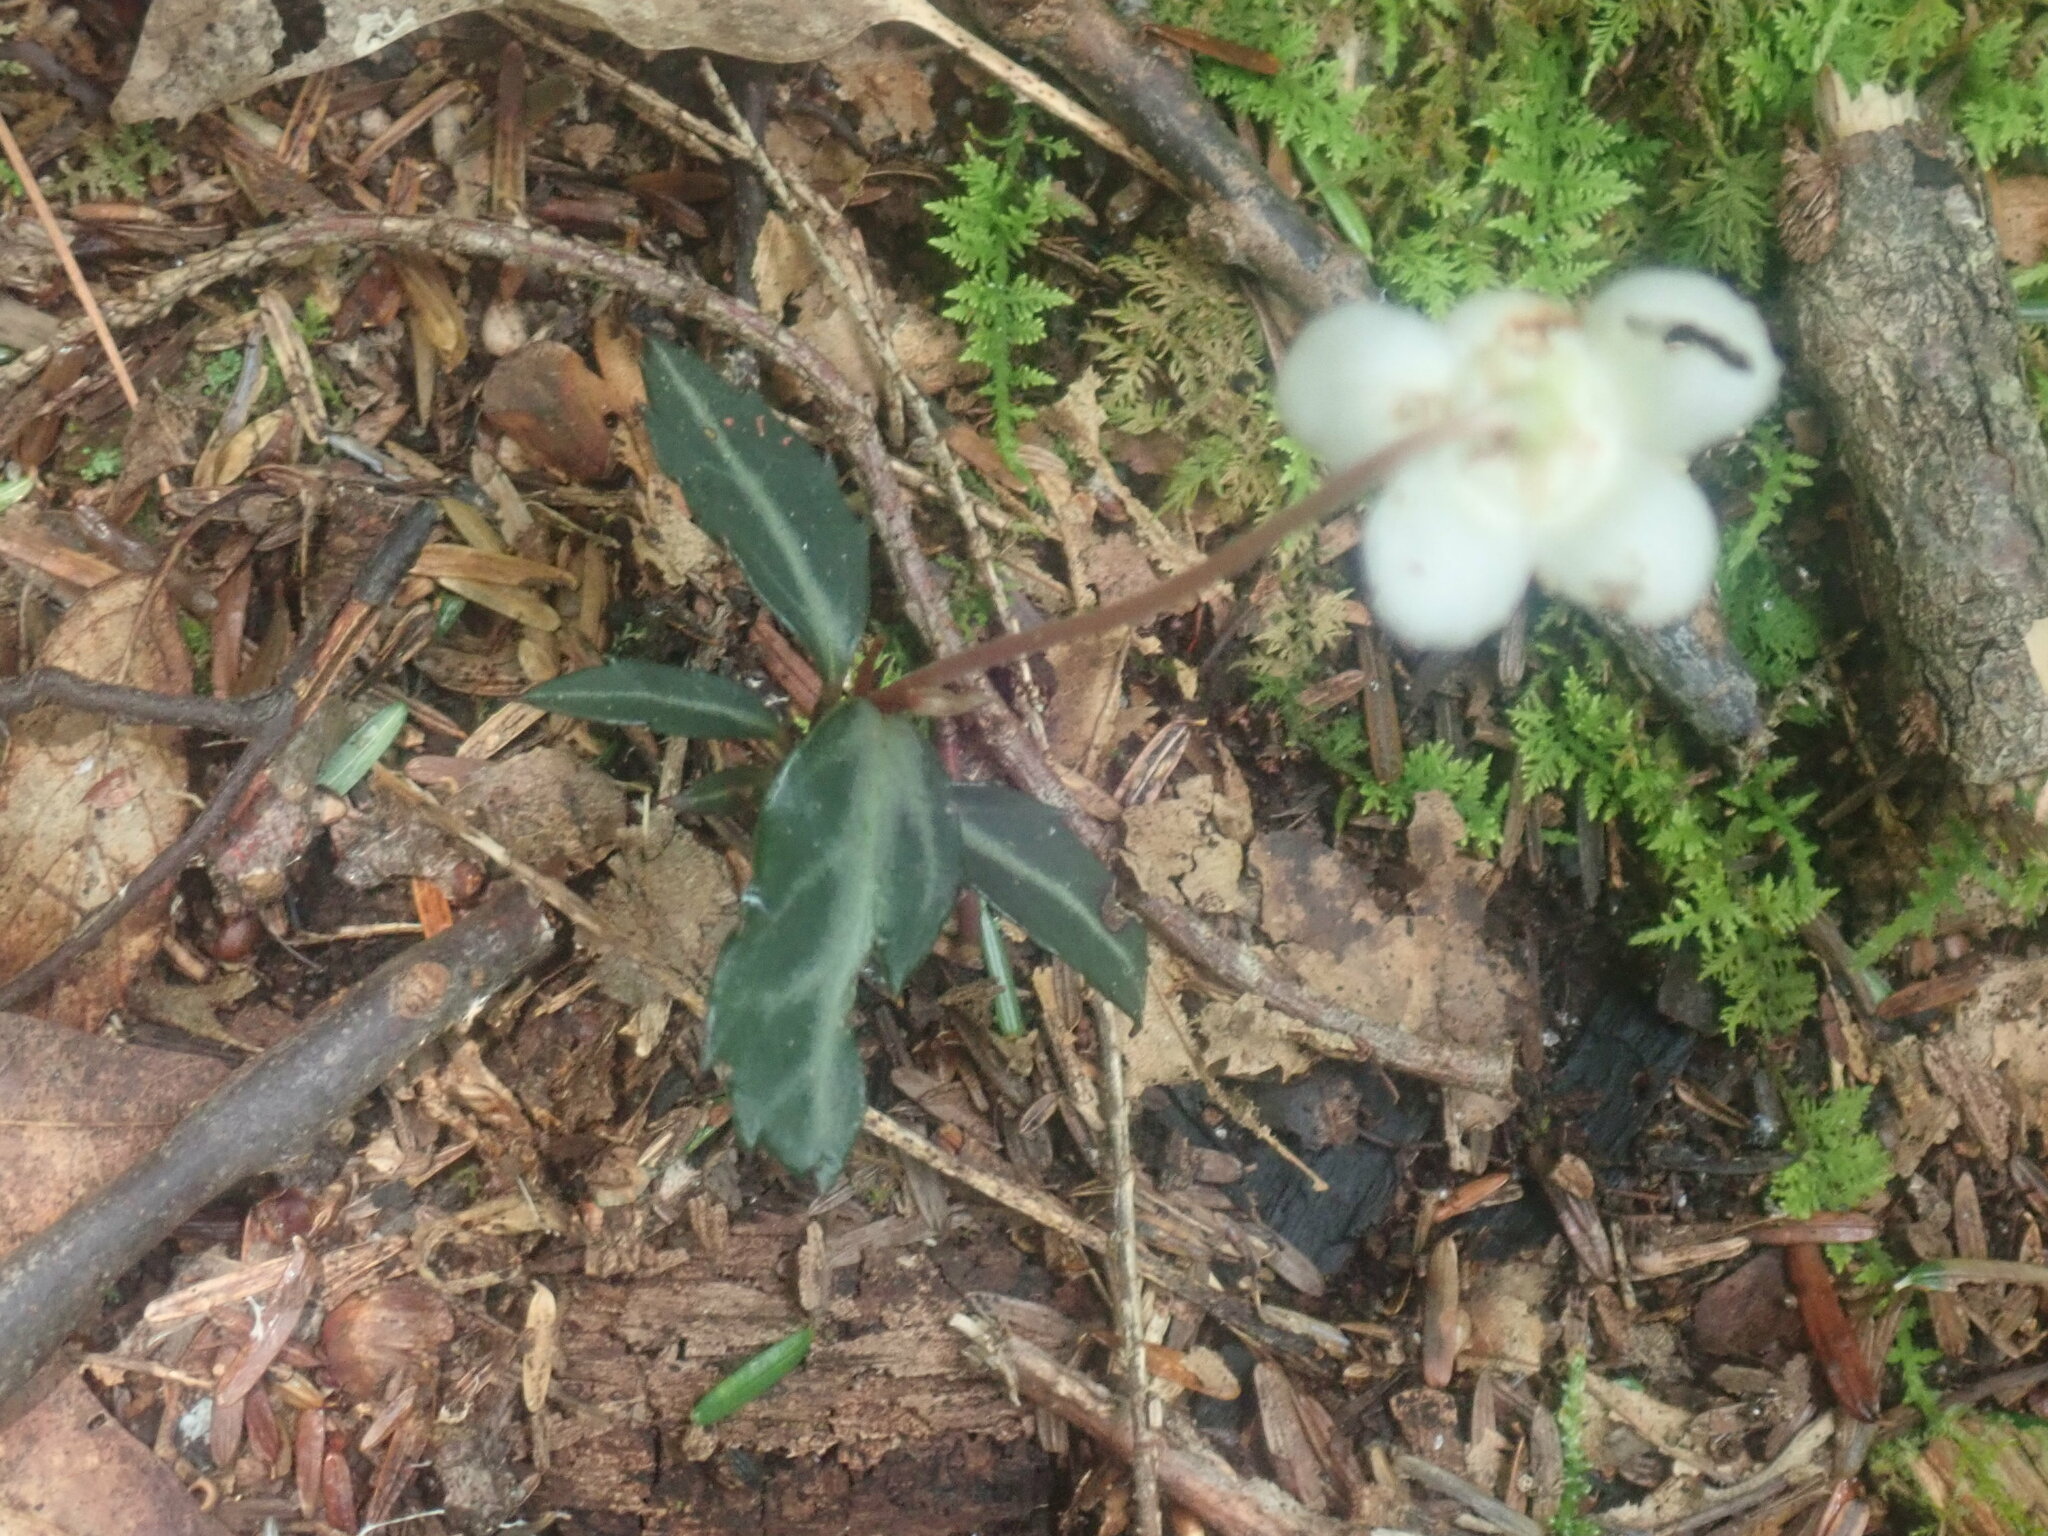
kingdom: Plantae
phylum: Tracheophyta
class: Magnoliopsida
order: Ericales
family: Ericaceae
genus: Chimaphila
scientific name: Chimaphila maculata
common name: Spotted pipsissewa
